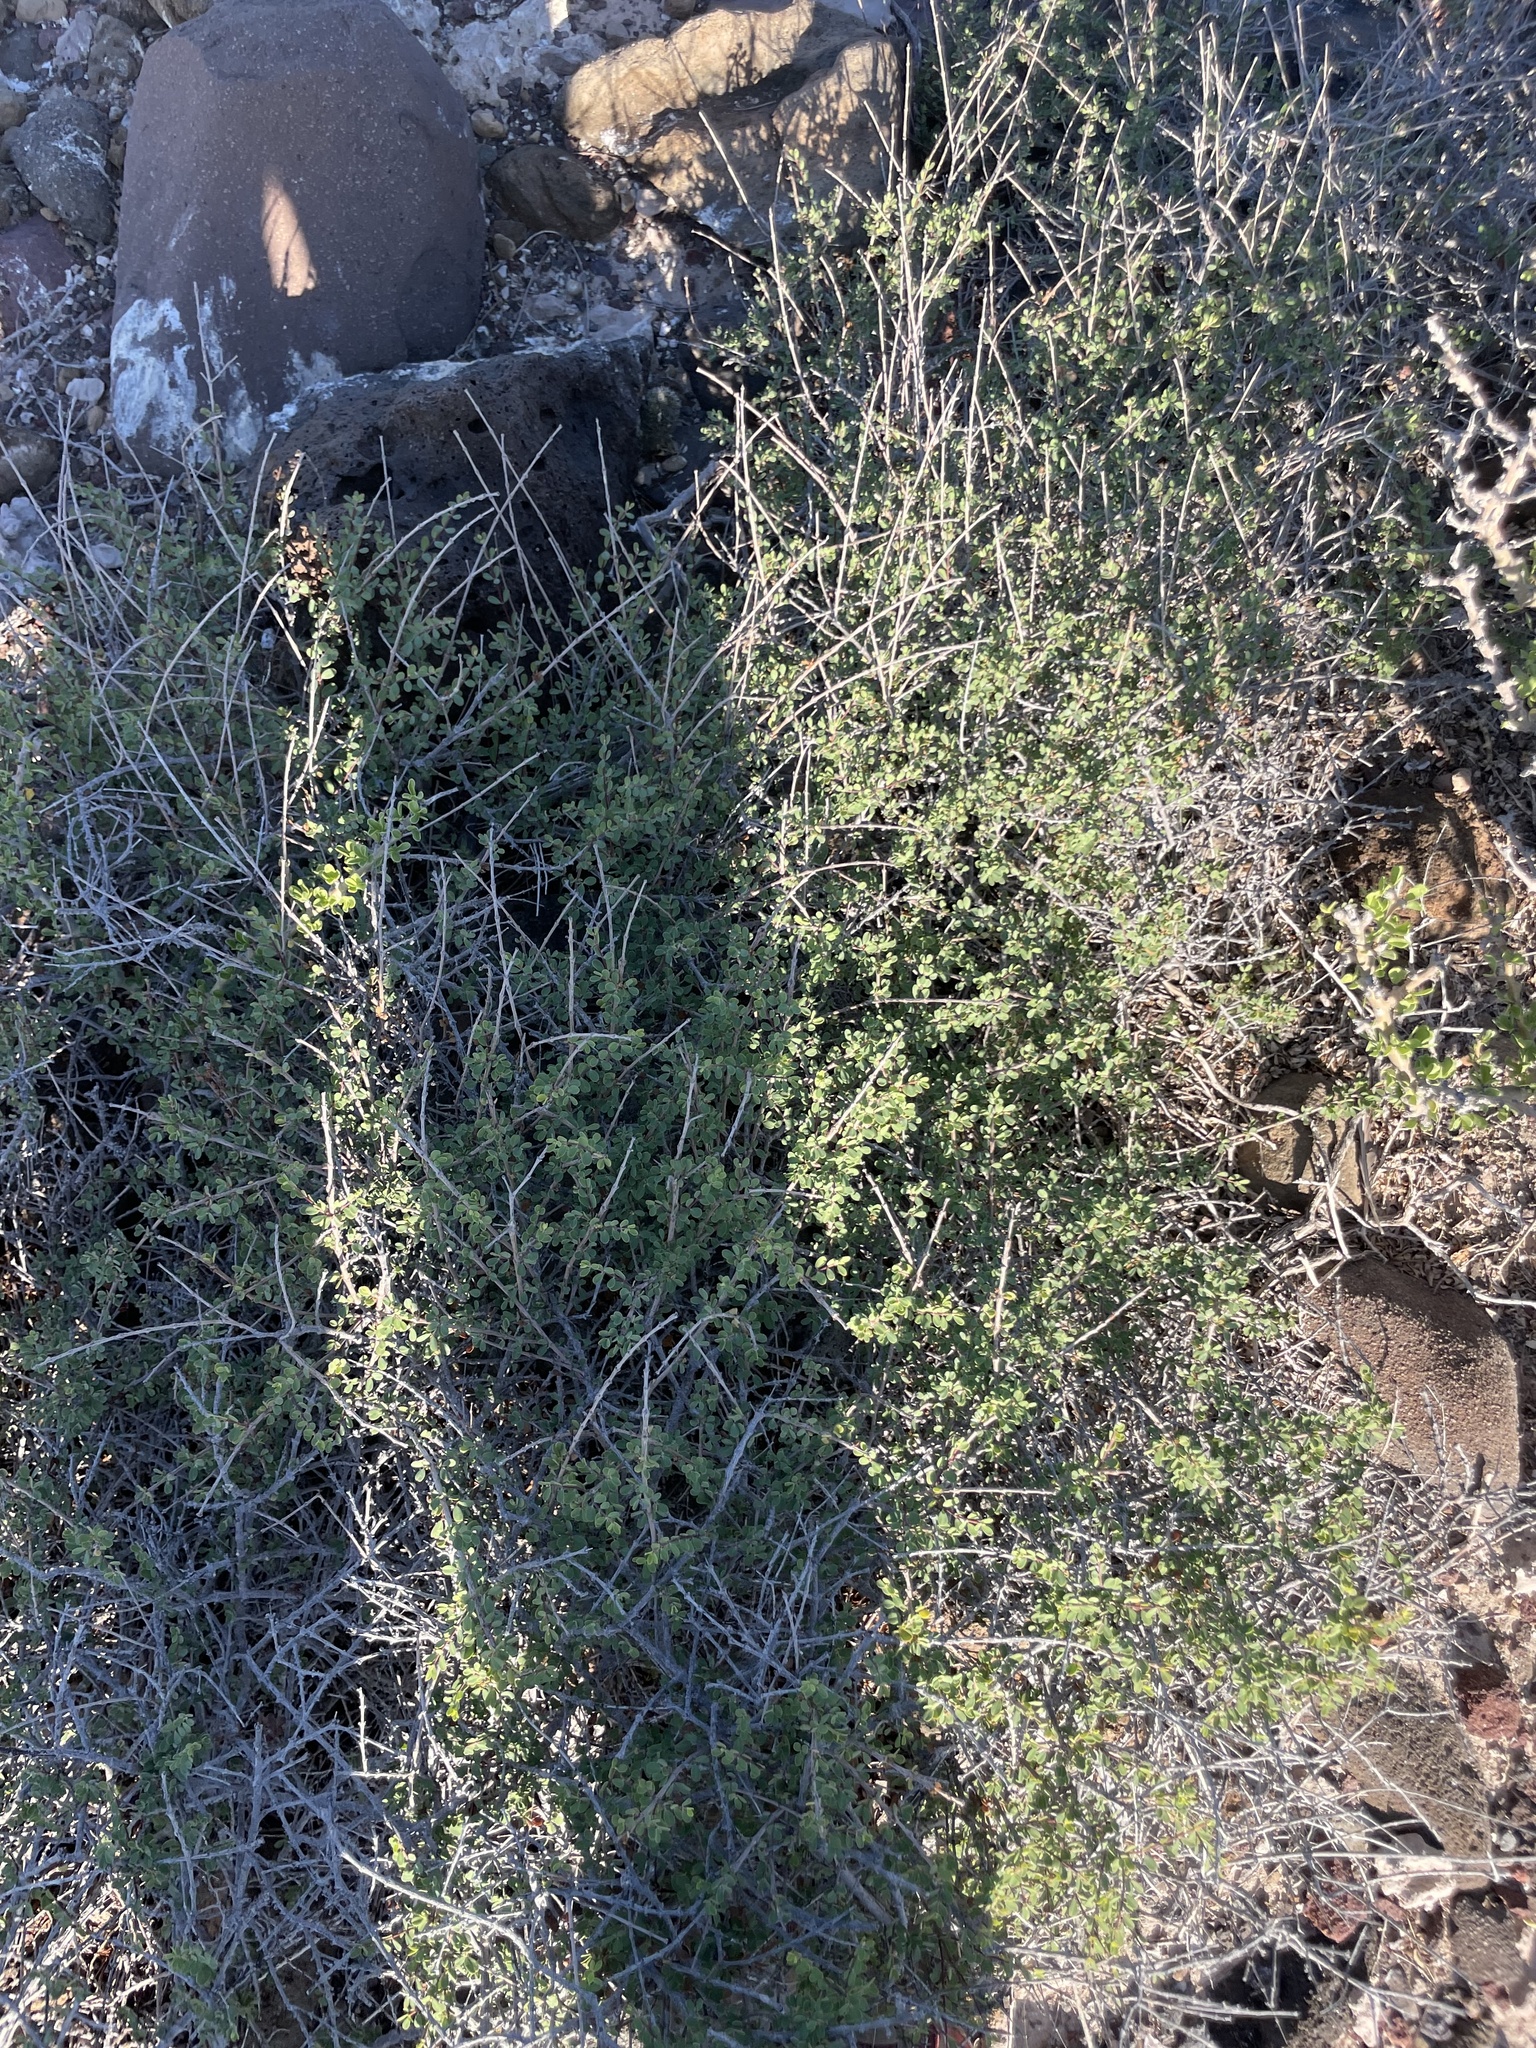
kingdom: Plantae
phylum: Tracheophyta
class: Magnoliopsida
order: Malpighiales
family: Euphorbiaceae
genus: Euphorbia
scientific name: Euphorbia magdalenae
